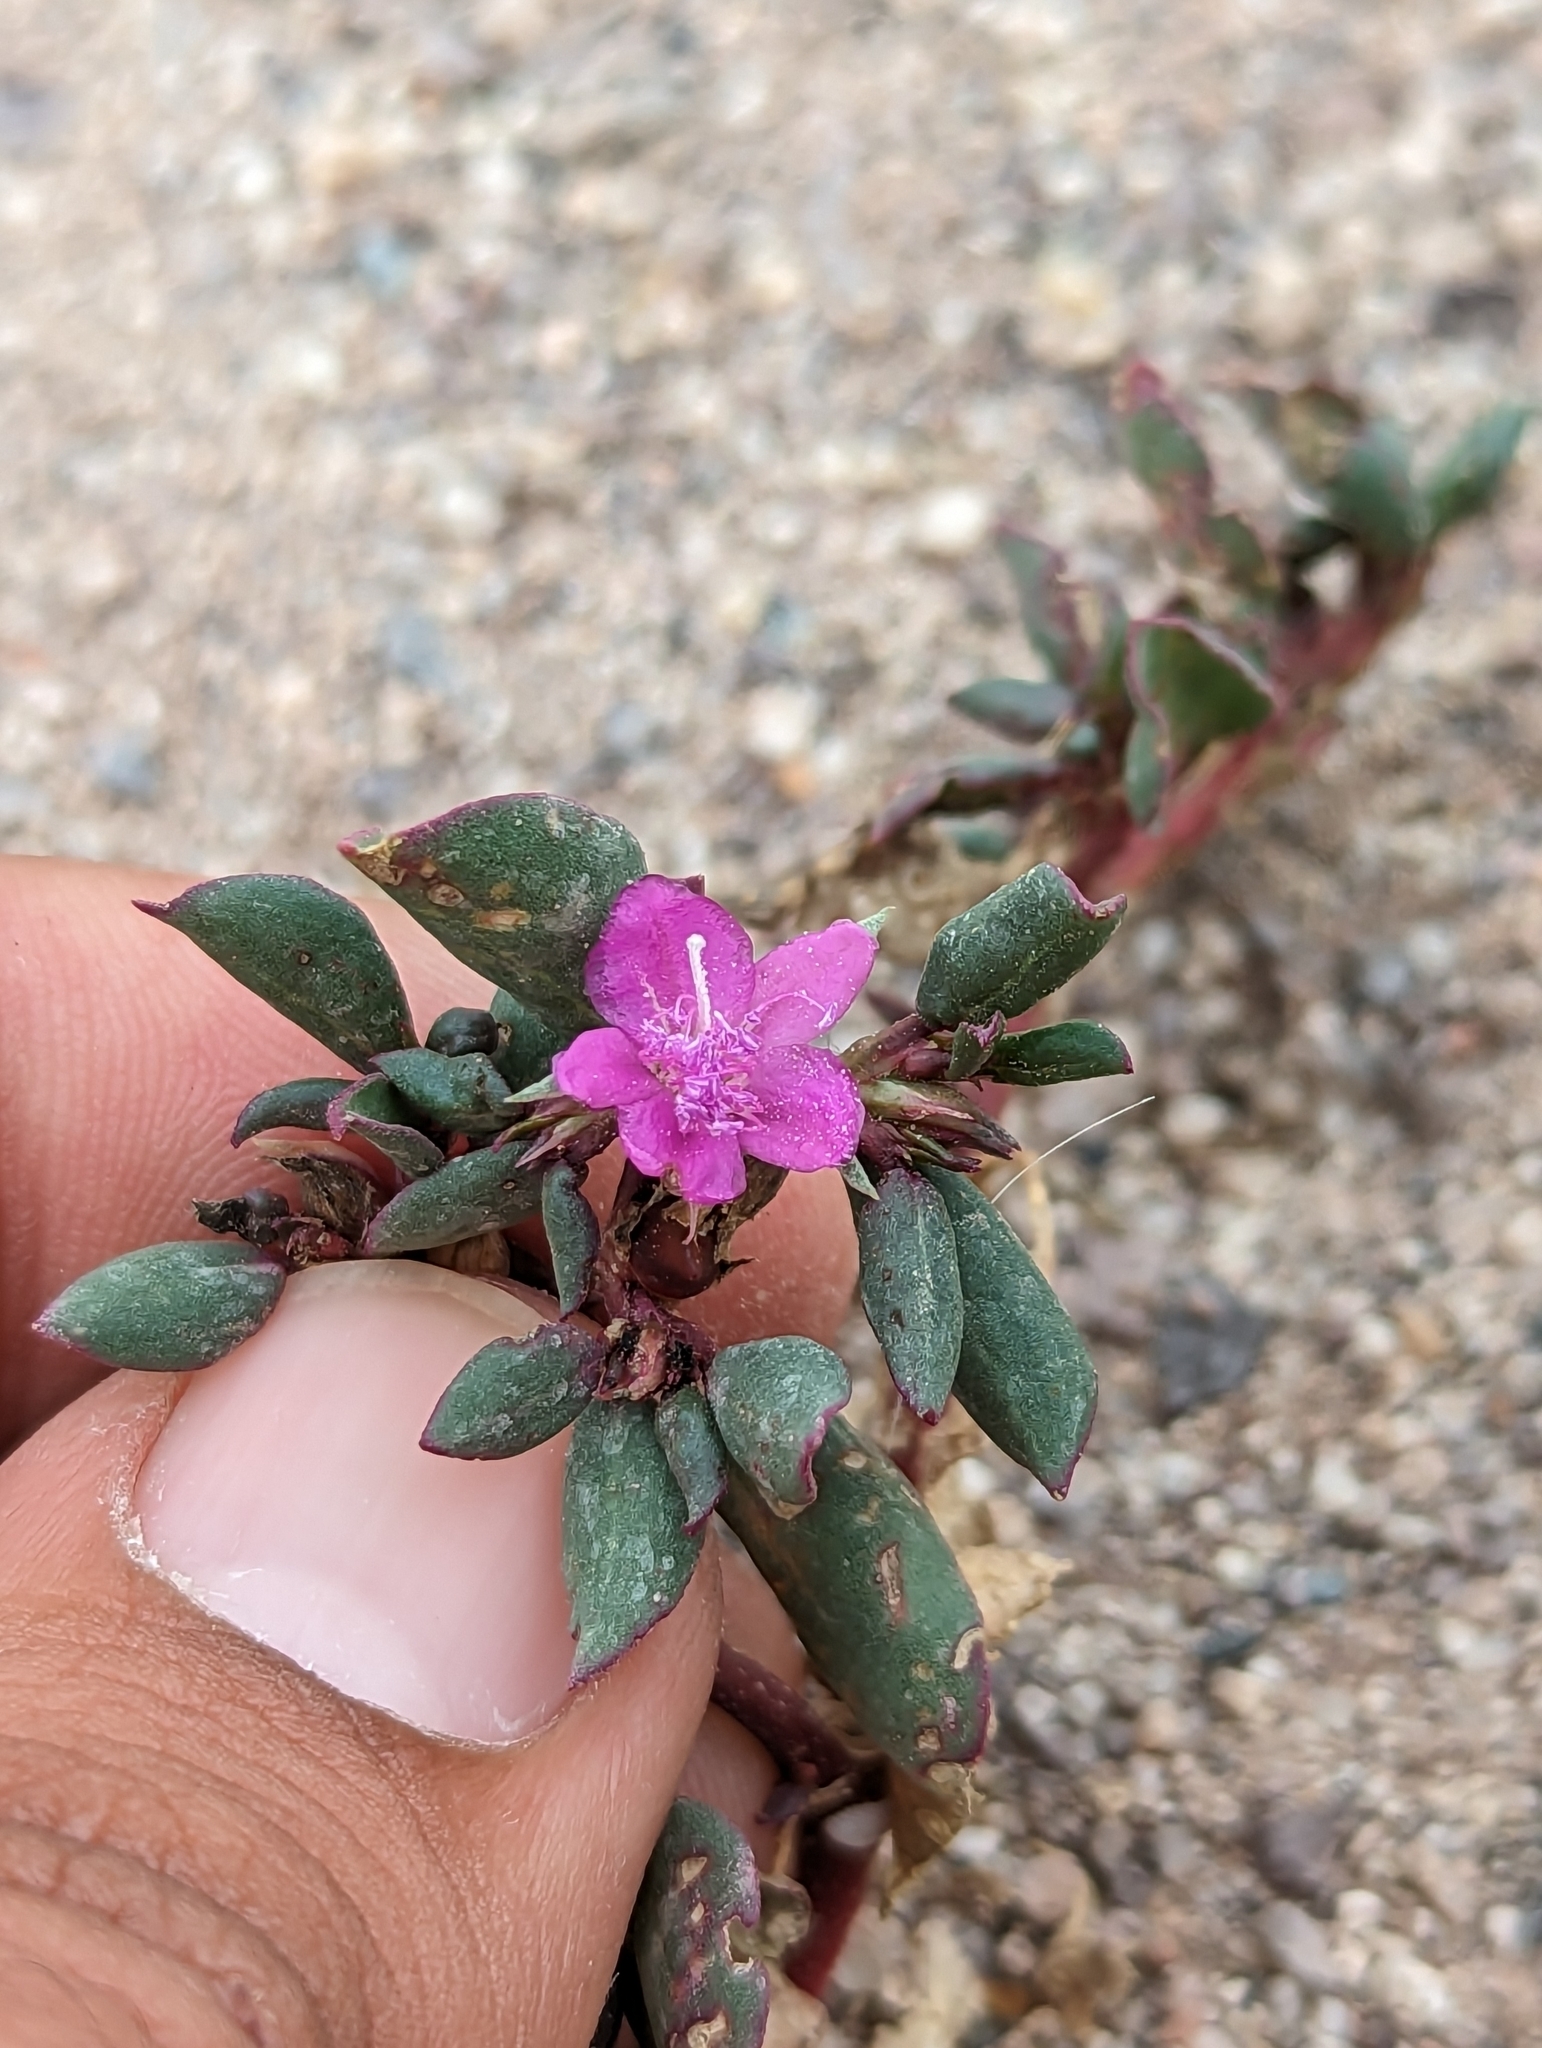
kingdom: Plantae
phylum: Tracheophyta
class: Magnoliopsida
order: Caryophyllales
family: Aizoaceae
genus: Trianthema
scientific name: Trianthema portulacastrum
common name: Desert horsepurslane
